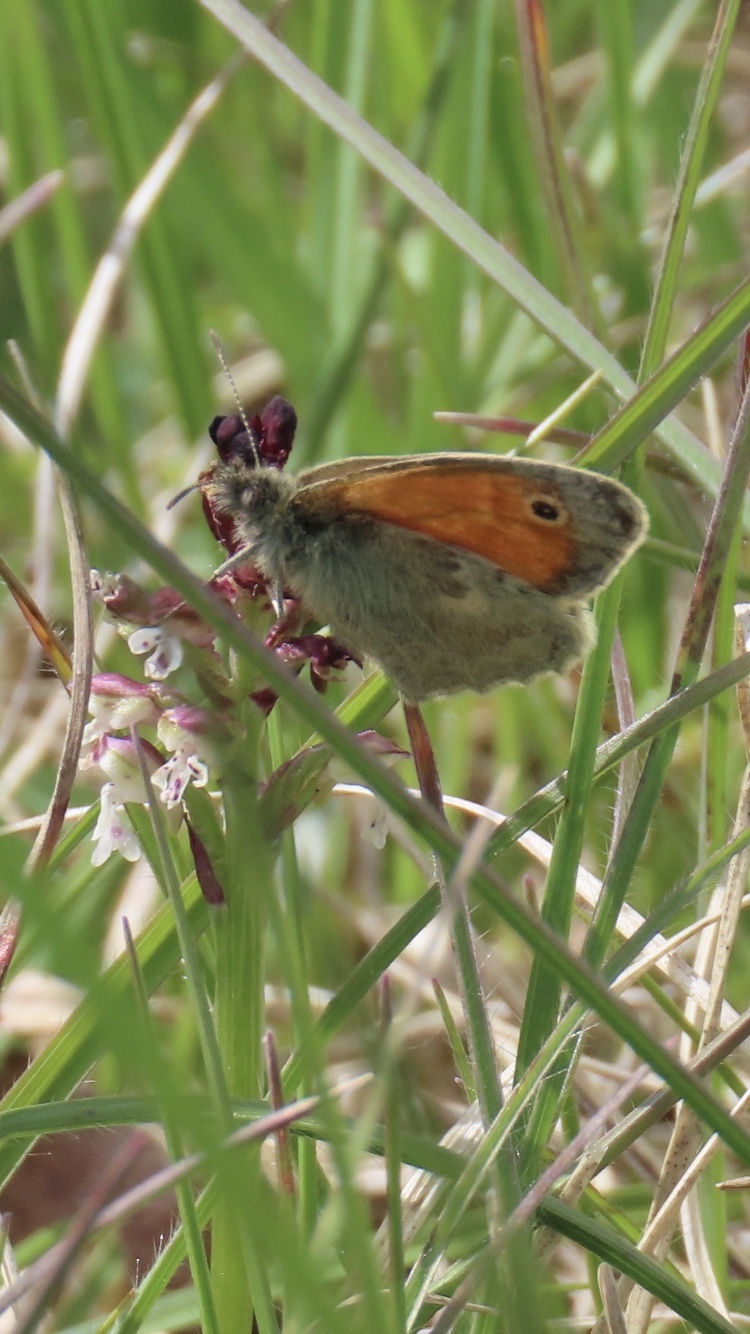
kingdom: Animalia
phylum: Arthropoda
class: Insecta
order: Lepidoptera
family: Nymphalidae
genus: Coenonympha
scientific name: Coenonympha pamphilus
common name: Small heath
